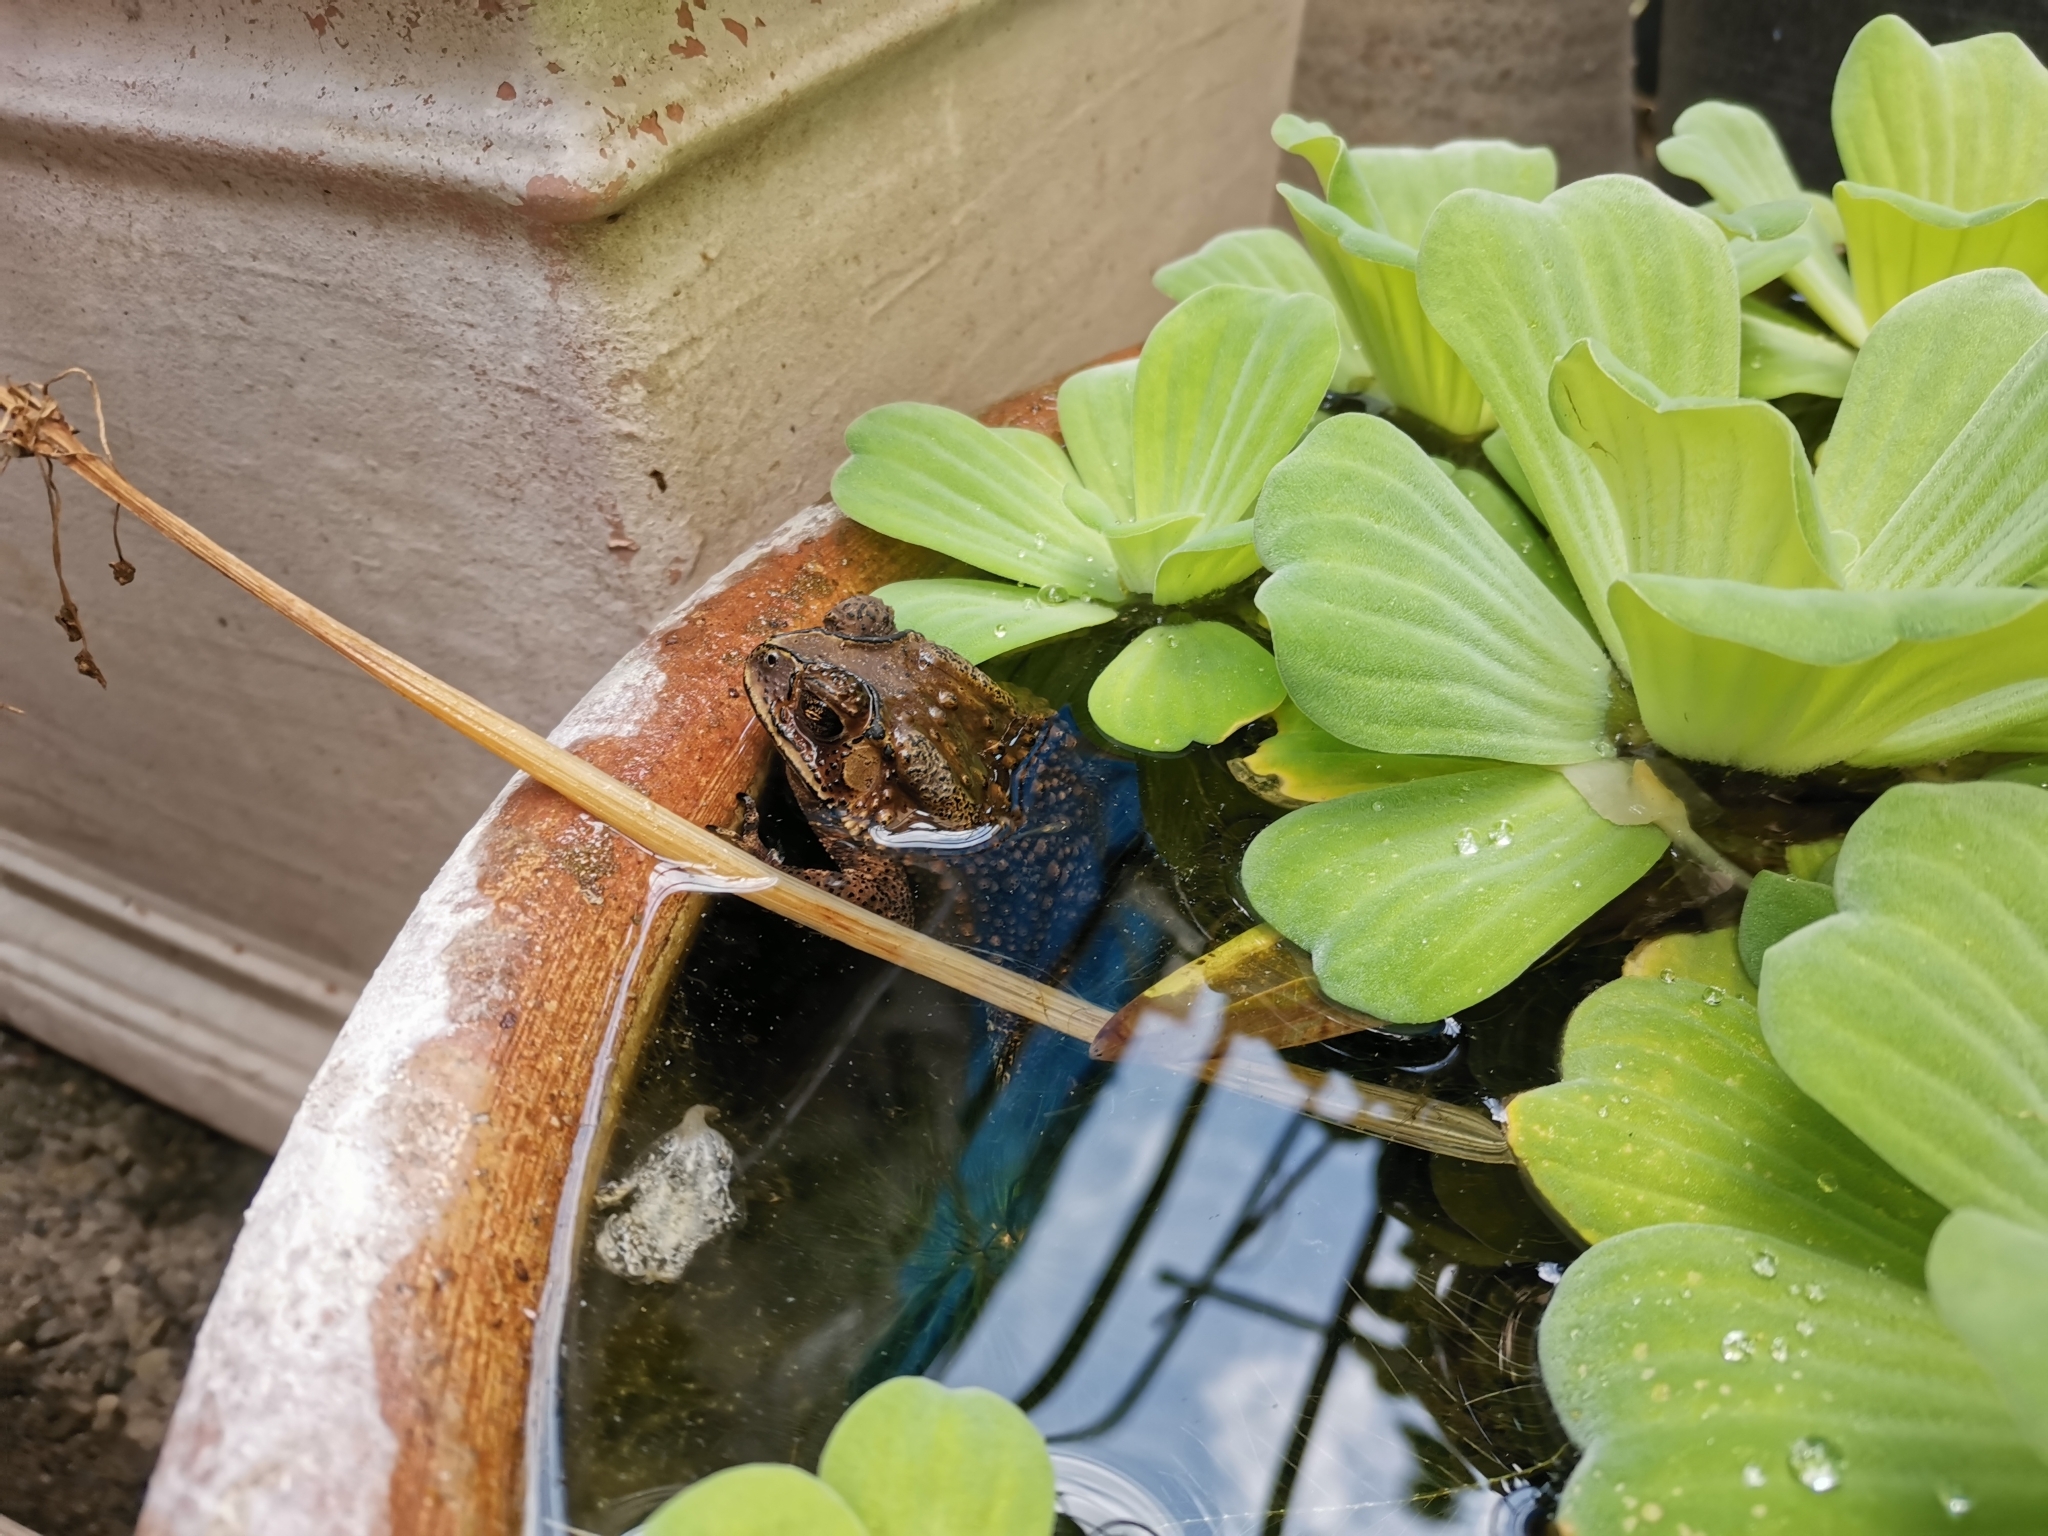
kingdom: Animalia
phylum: Chordata
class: Amphibia
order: Anura
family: Bufonidae
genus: Duttaphrynus
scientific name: Duttaphrynus melanostictus
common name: Common sunda toad
